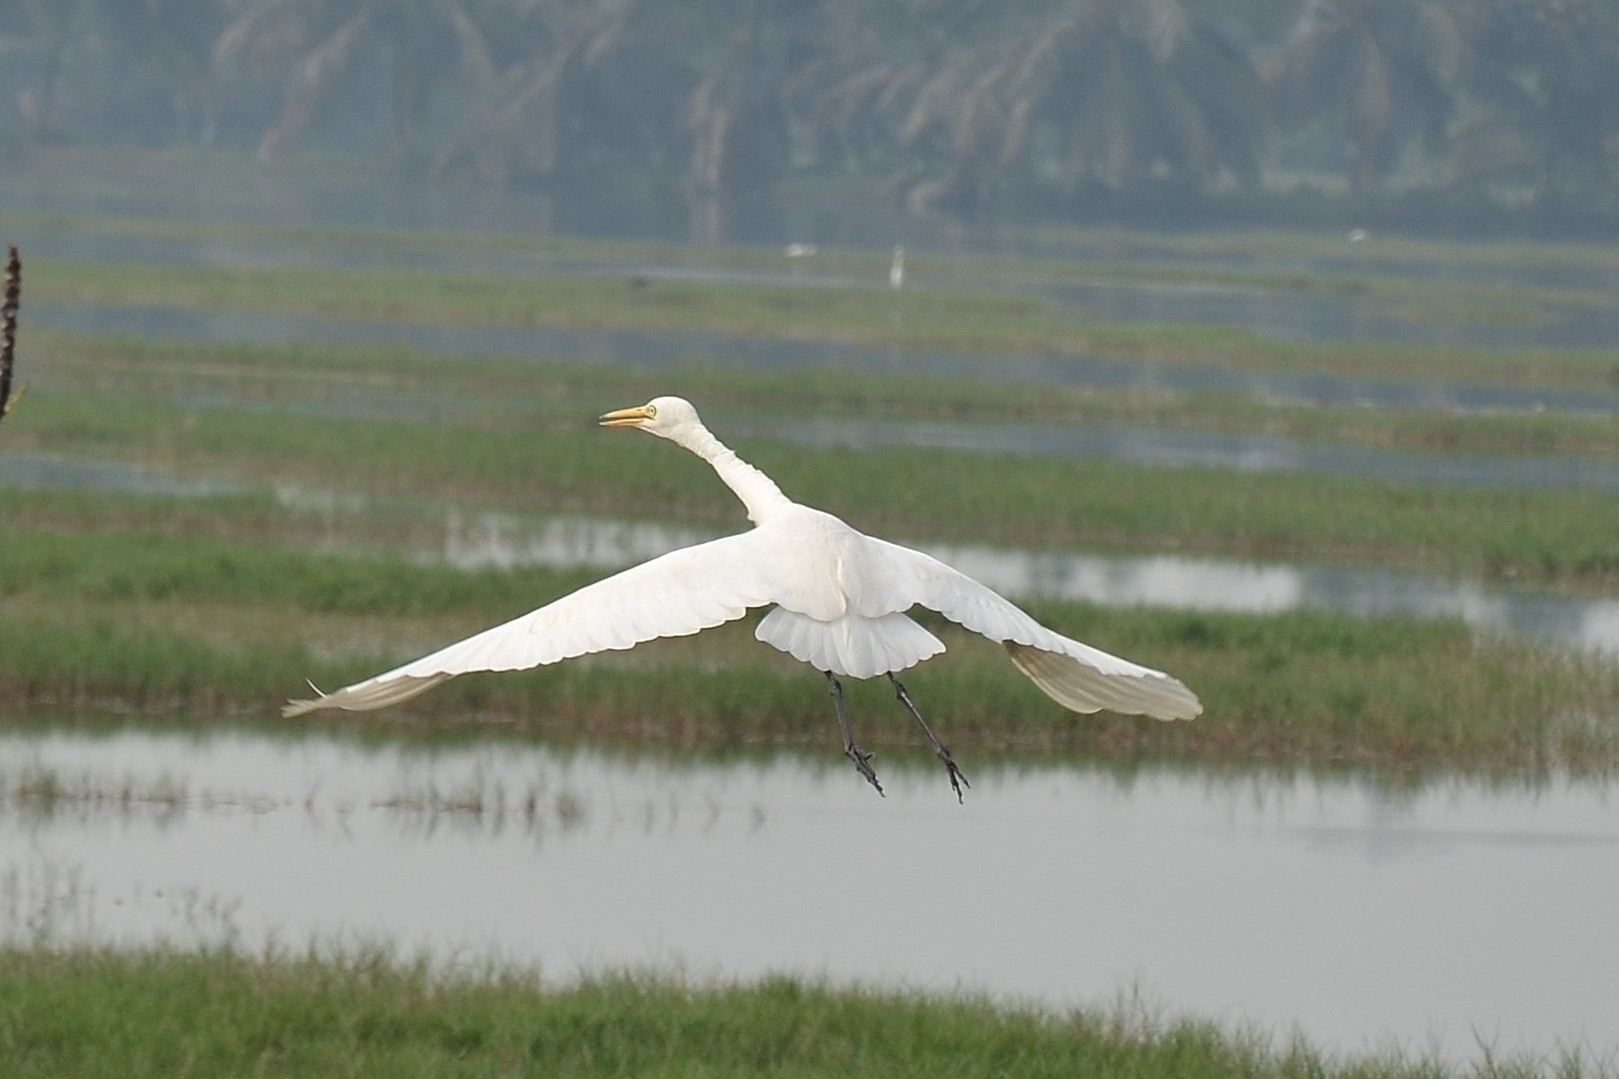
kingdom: Animalia
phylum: Chordata
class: Aves
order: Pelecaniformes
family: Ardeidae
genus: Egretta
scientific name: Egretta intermedia
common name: Intermediate egret
